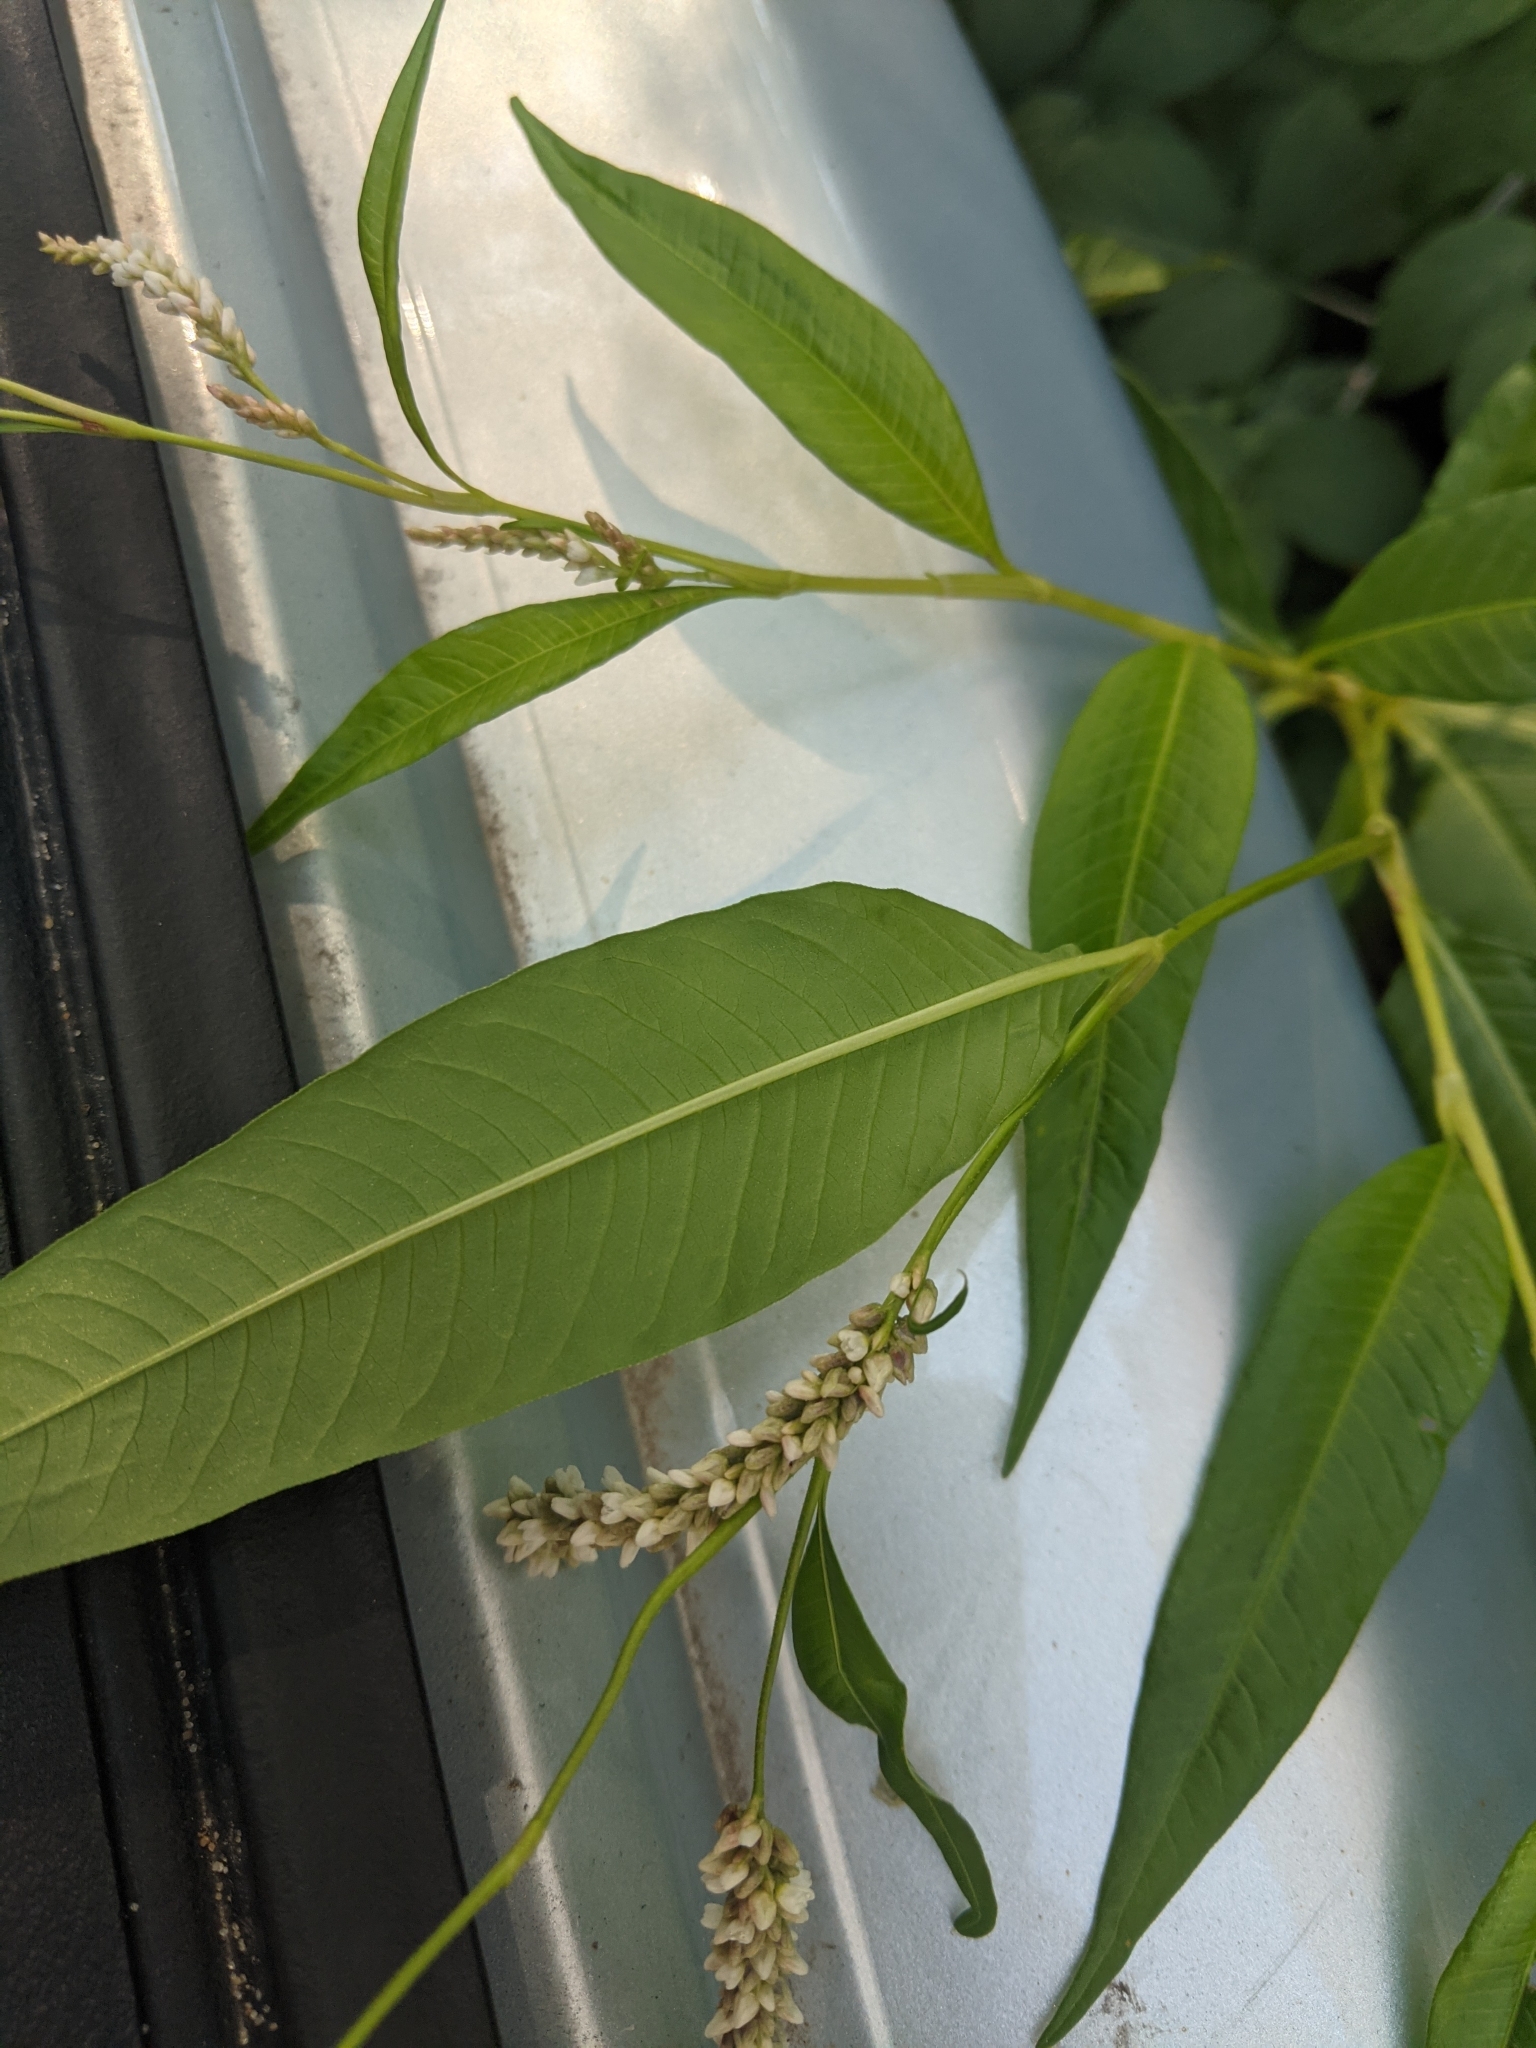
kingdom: Plantae
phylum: Tracheophyta
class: Magnoliopsida
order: Caryophyllales
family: Polygonaceae
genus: Persicaria
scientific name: Persicaria lapathifolia
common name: Curlytop knotweed
